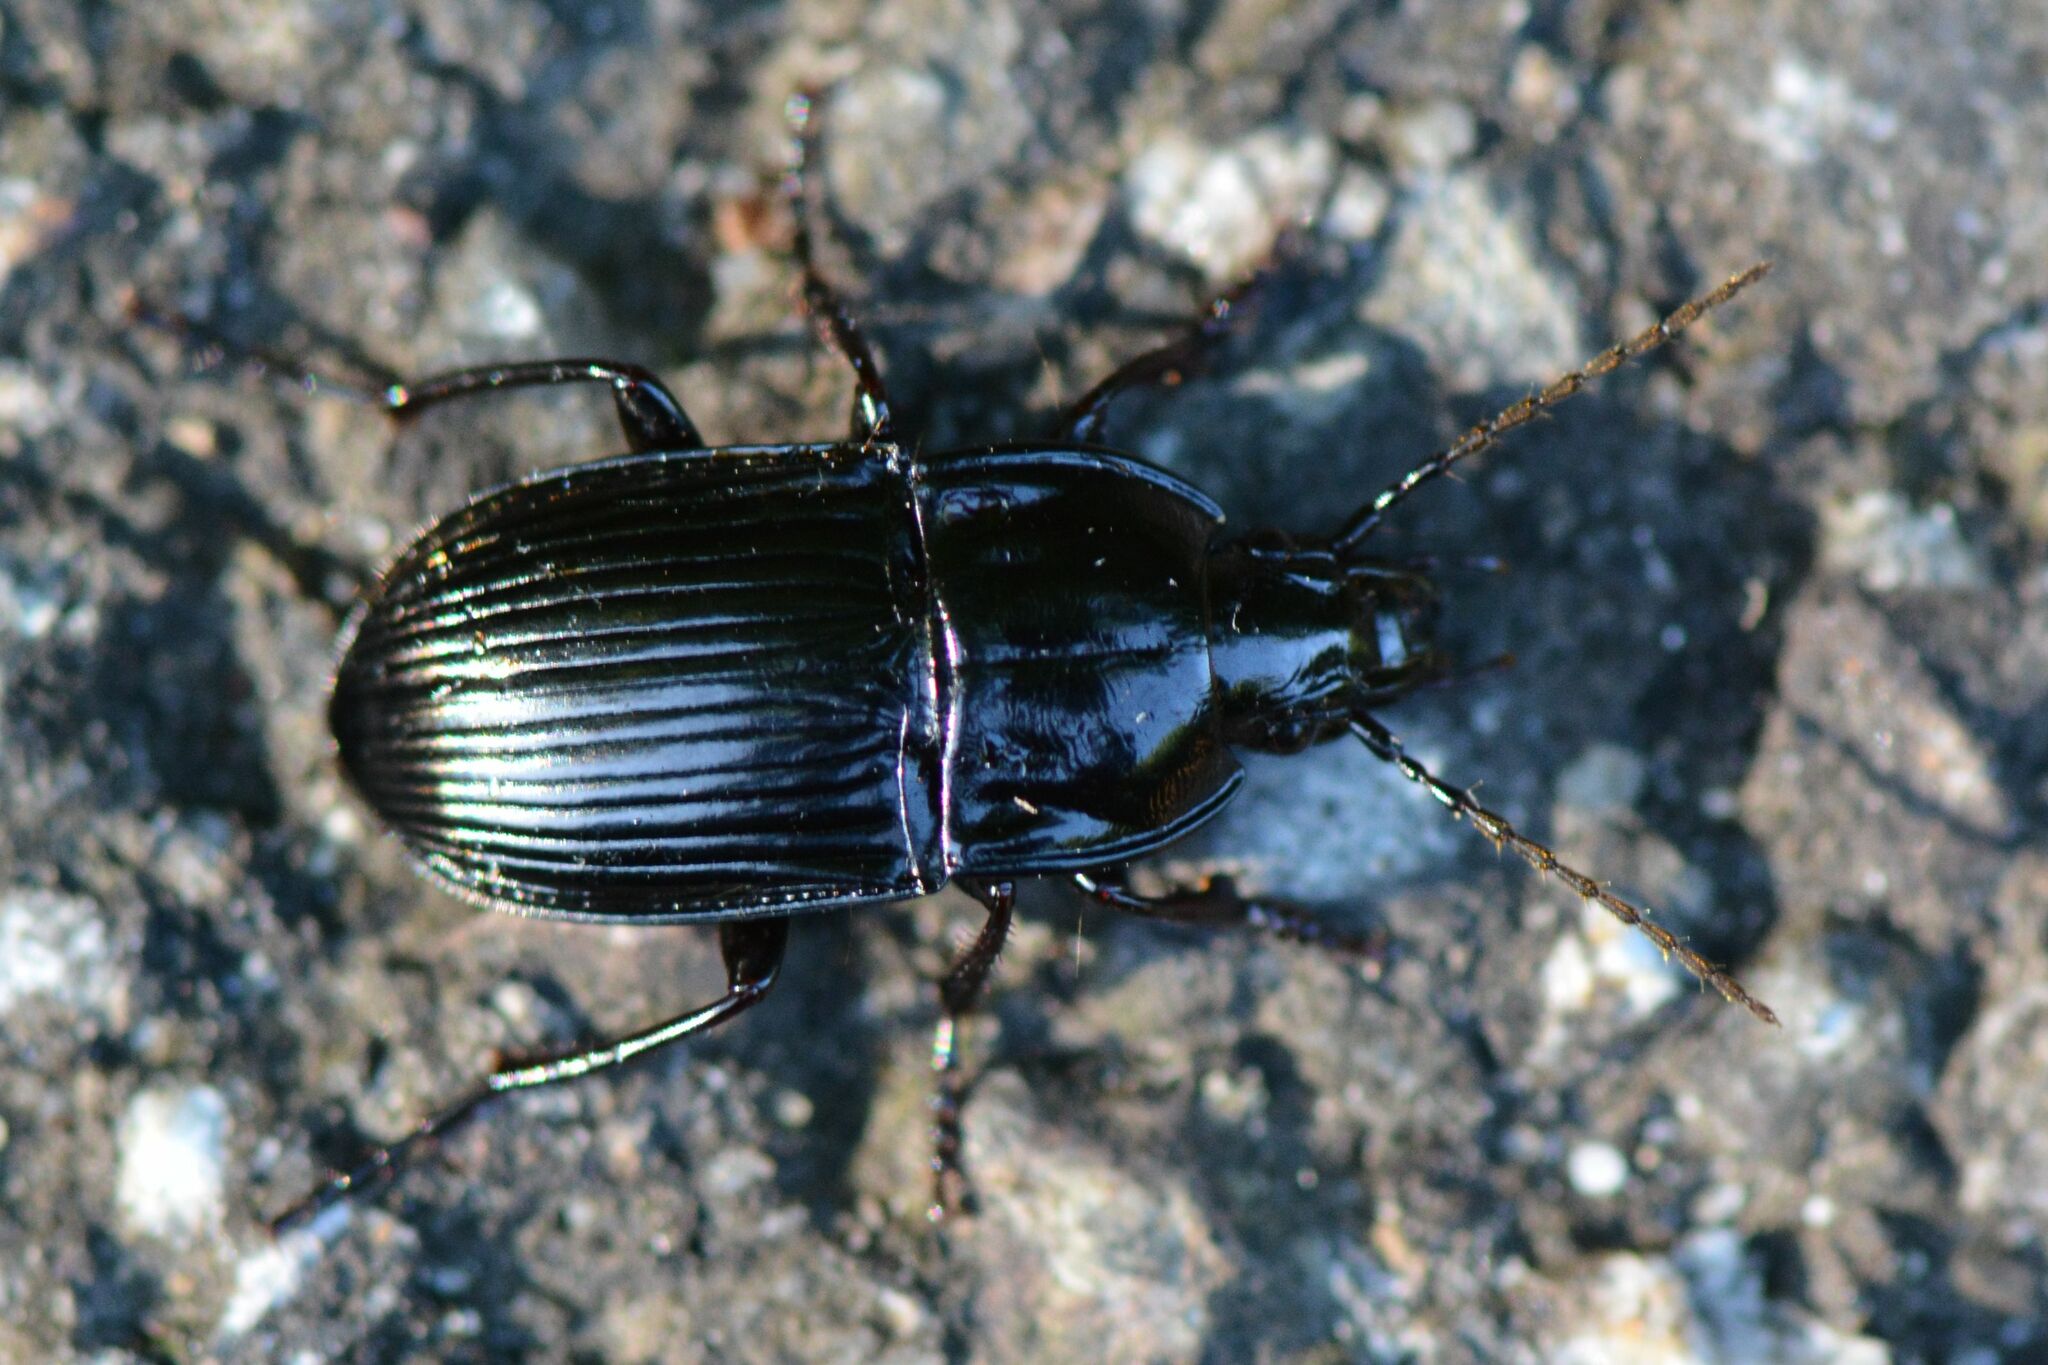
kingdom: Animalia
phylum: Arthropoda
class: Insecta
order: Coleoptera
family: Carabidae
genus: Abax
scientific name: Abax ovalis
